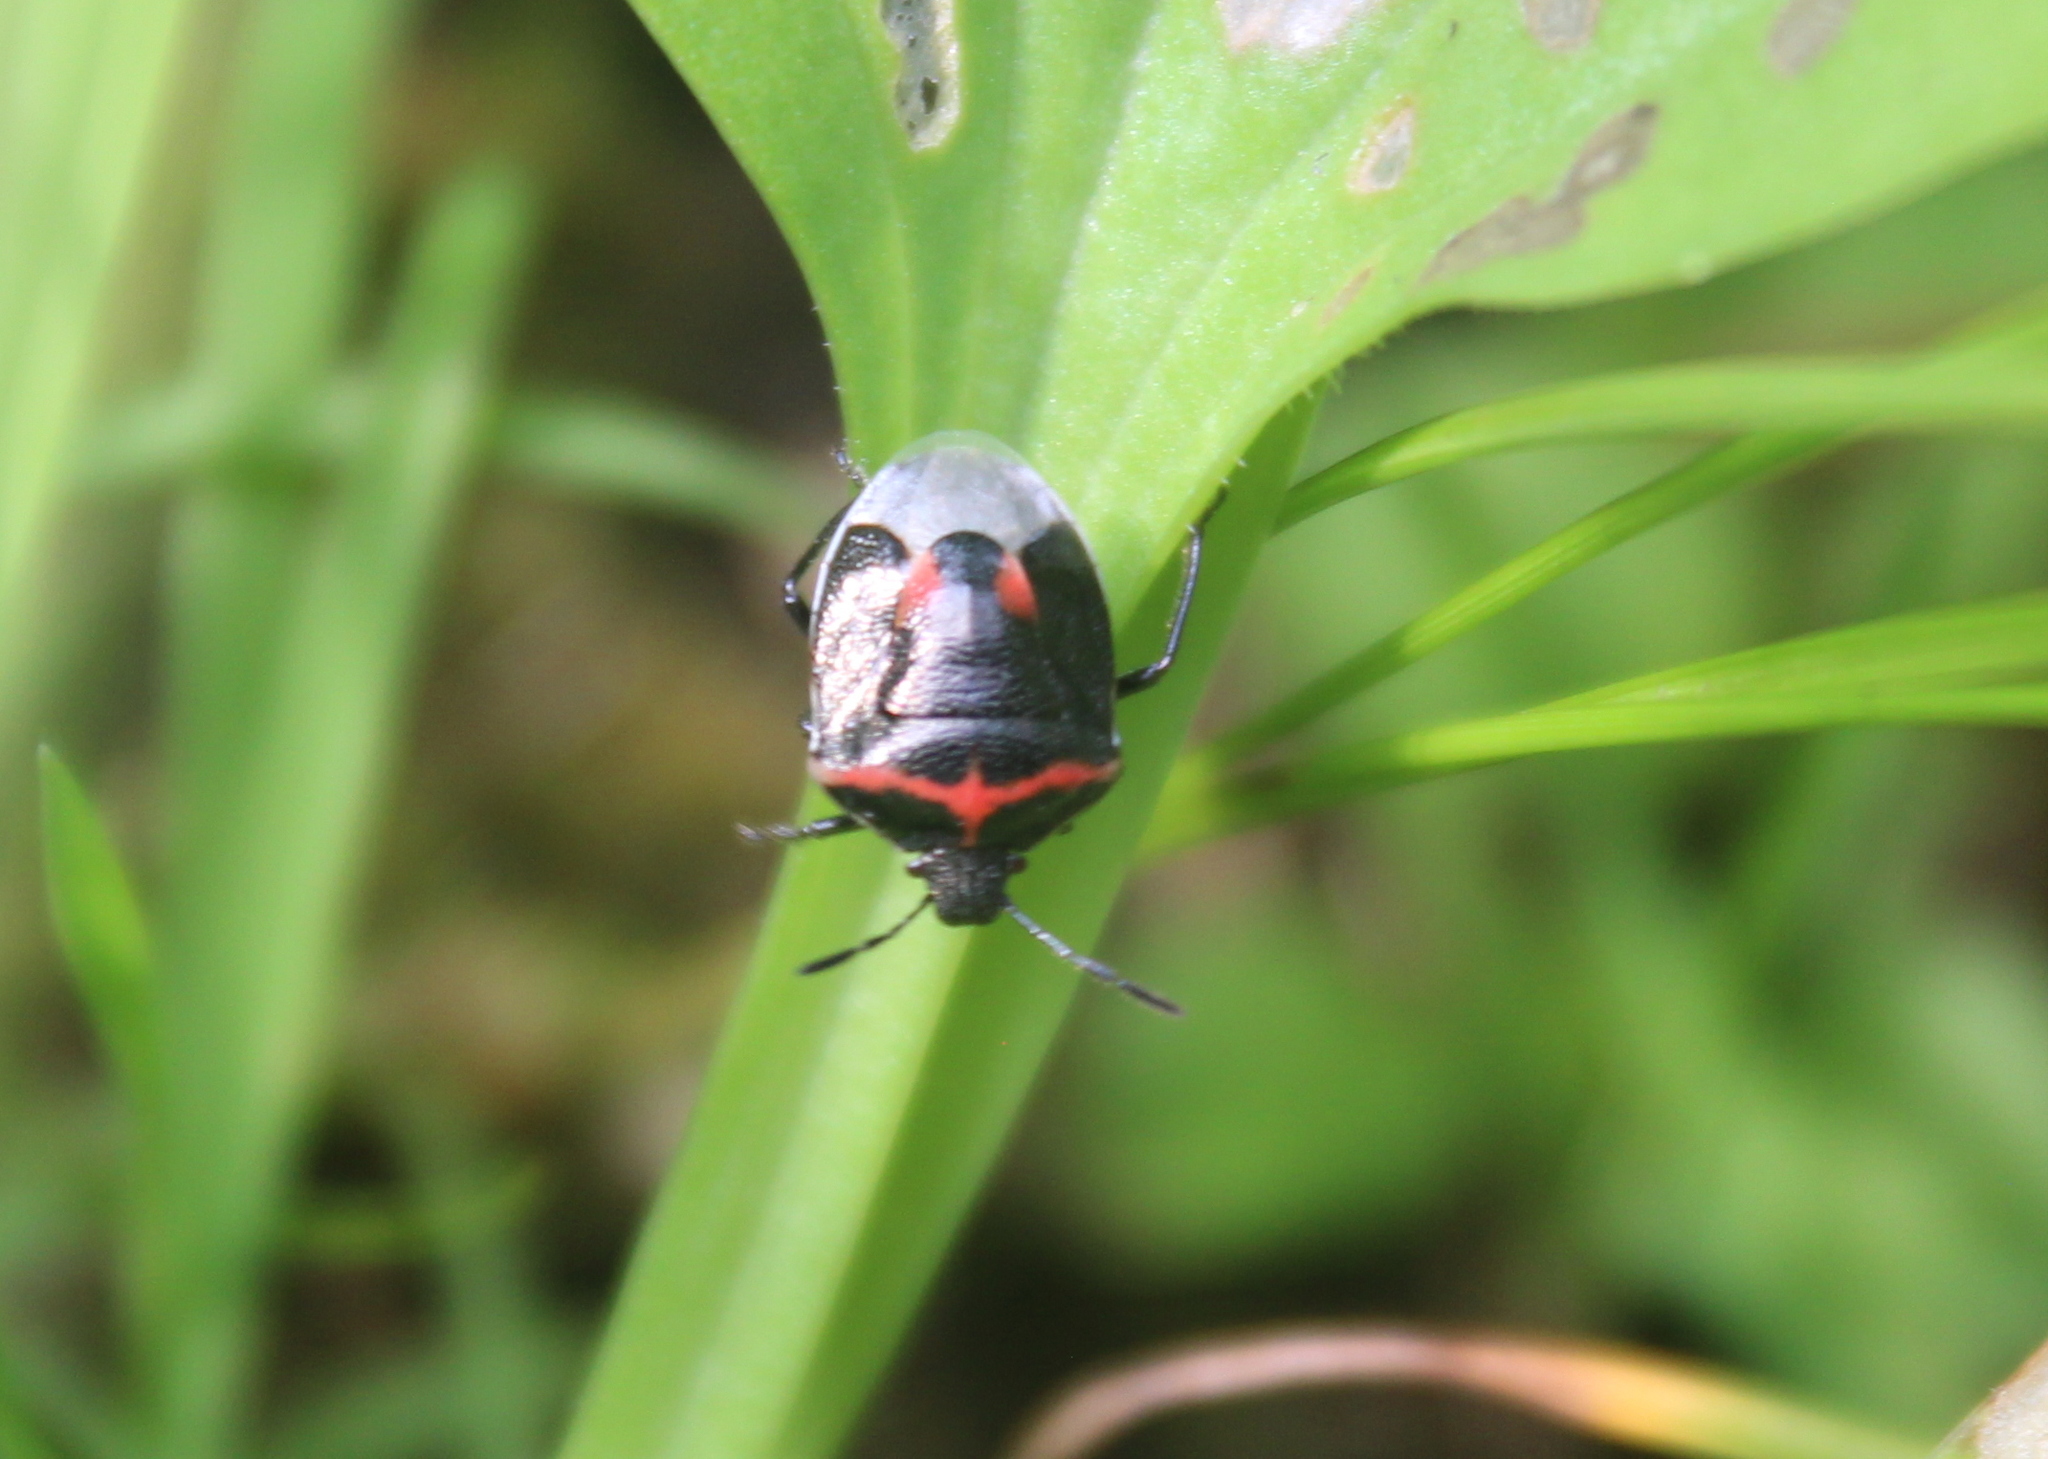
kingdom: Animalia
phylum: Arthropoda
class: Insecta
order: Hemiptera
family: Pentatomidae
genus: Cosmopepla
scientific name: Cosmopepla lintneriana
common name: Twice-stabbed stink bug
